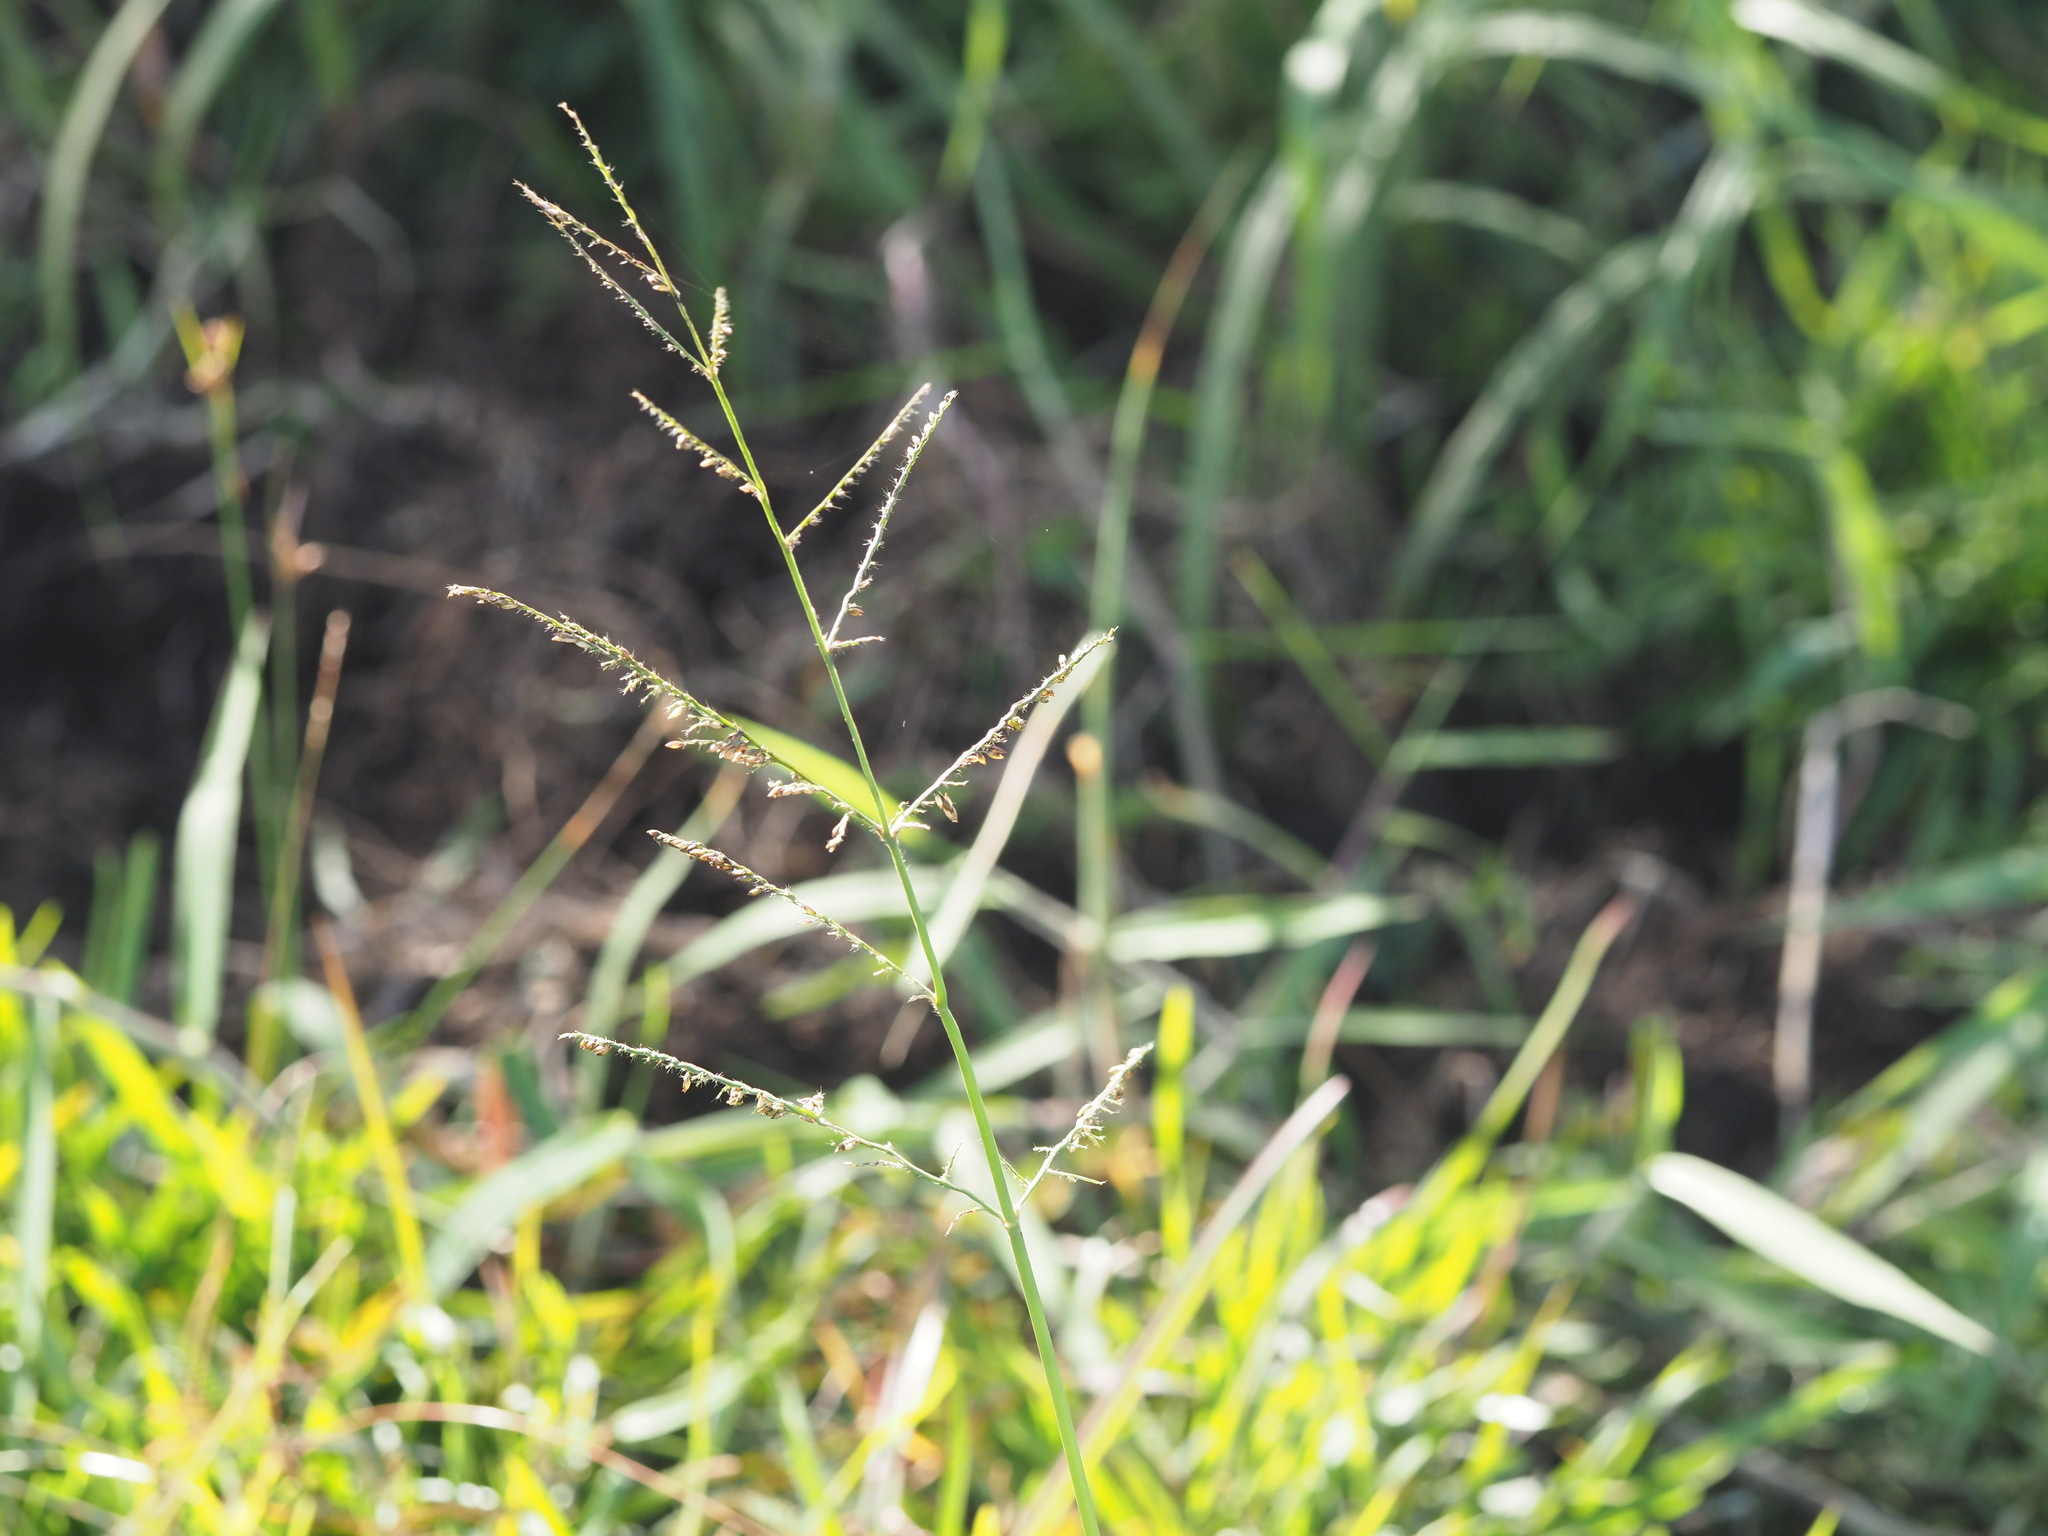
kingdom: Plantae
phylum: Tracheophyta
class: Liliopsida
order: Poales
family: Poaceae
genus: Urochloa
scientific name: Urochloa mutica
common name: Para grass
